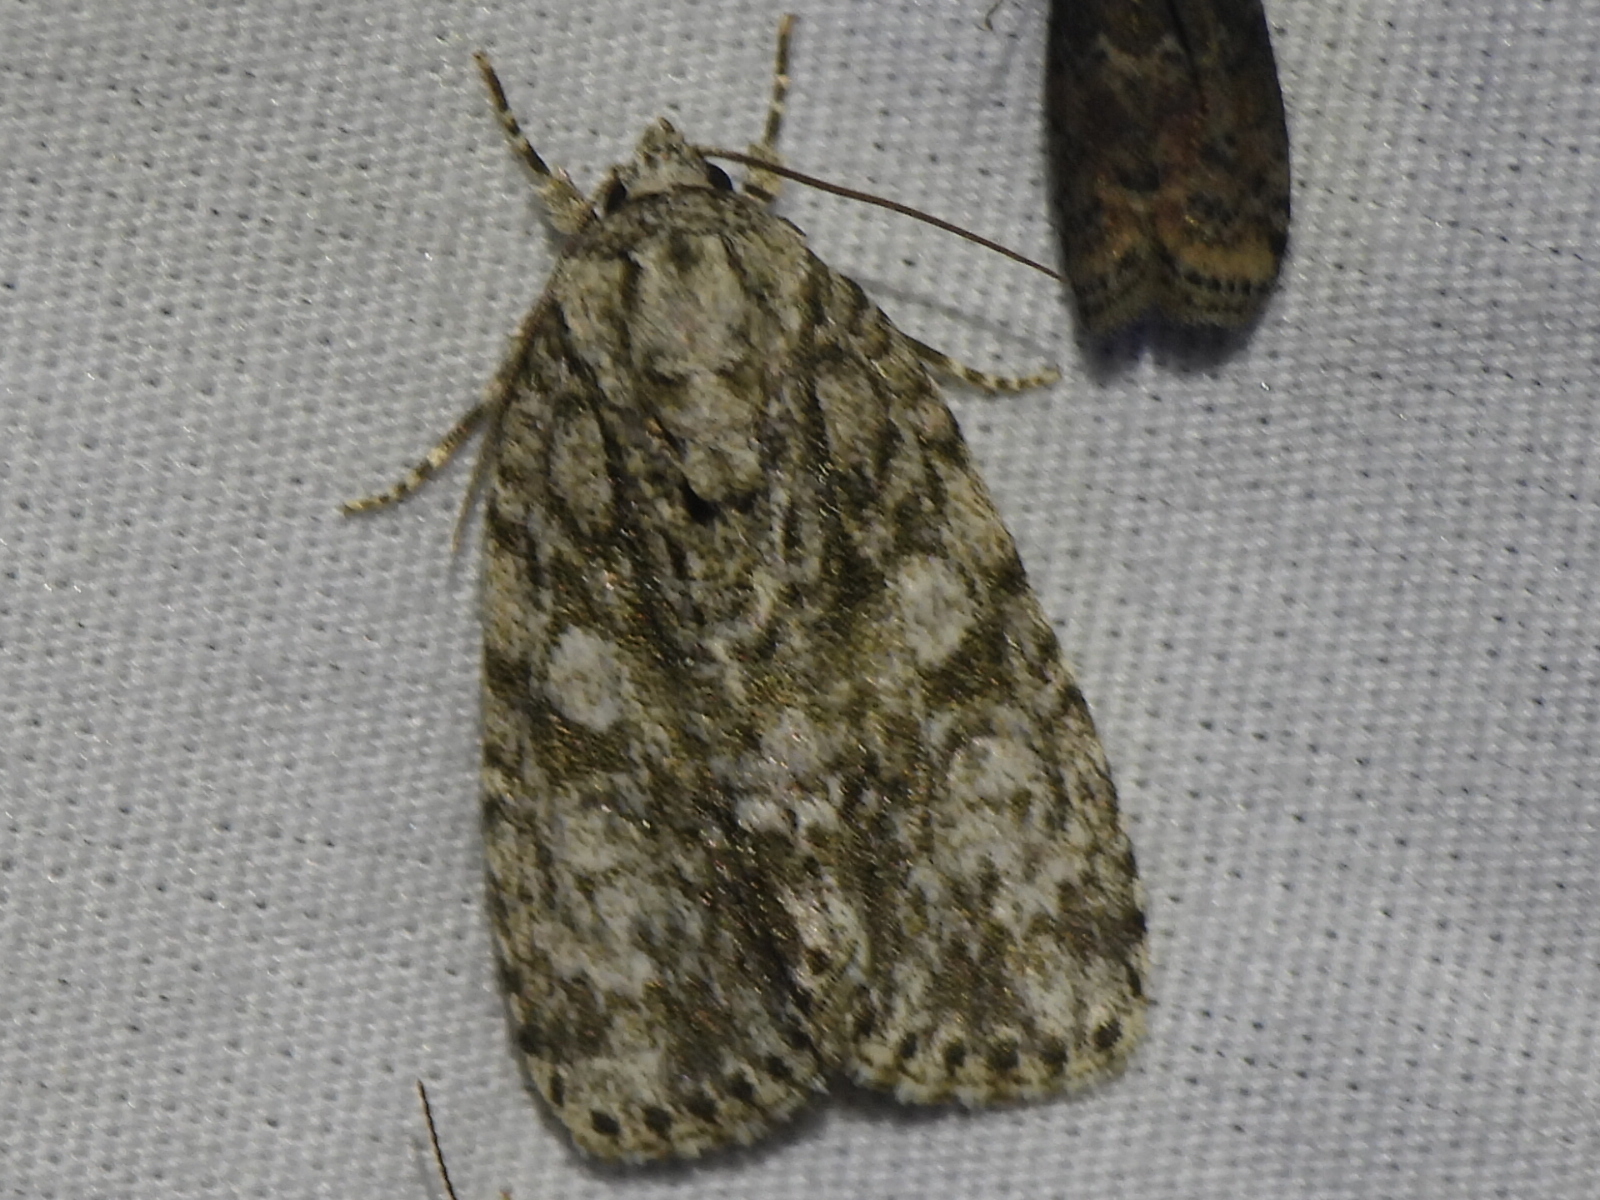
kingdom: Animalia
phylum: Arthropoda
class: Insecta
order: Lepidoptera
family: Noctuidae
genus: Acronicta
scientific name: Acronicta retardata
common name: Maple dagger
